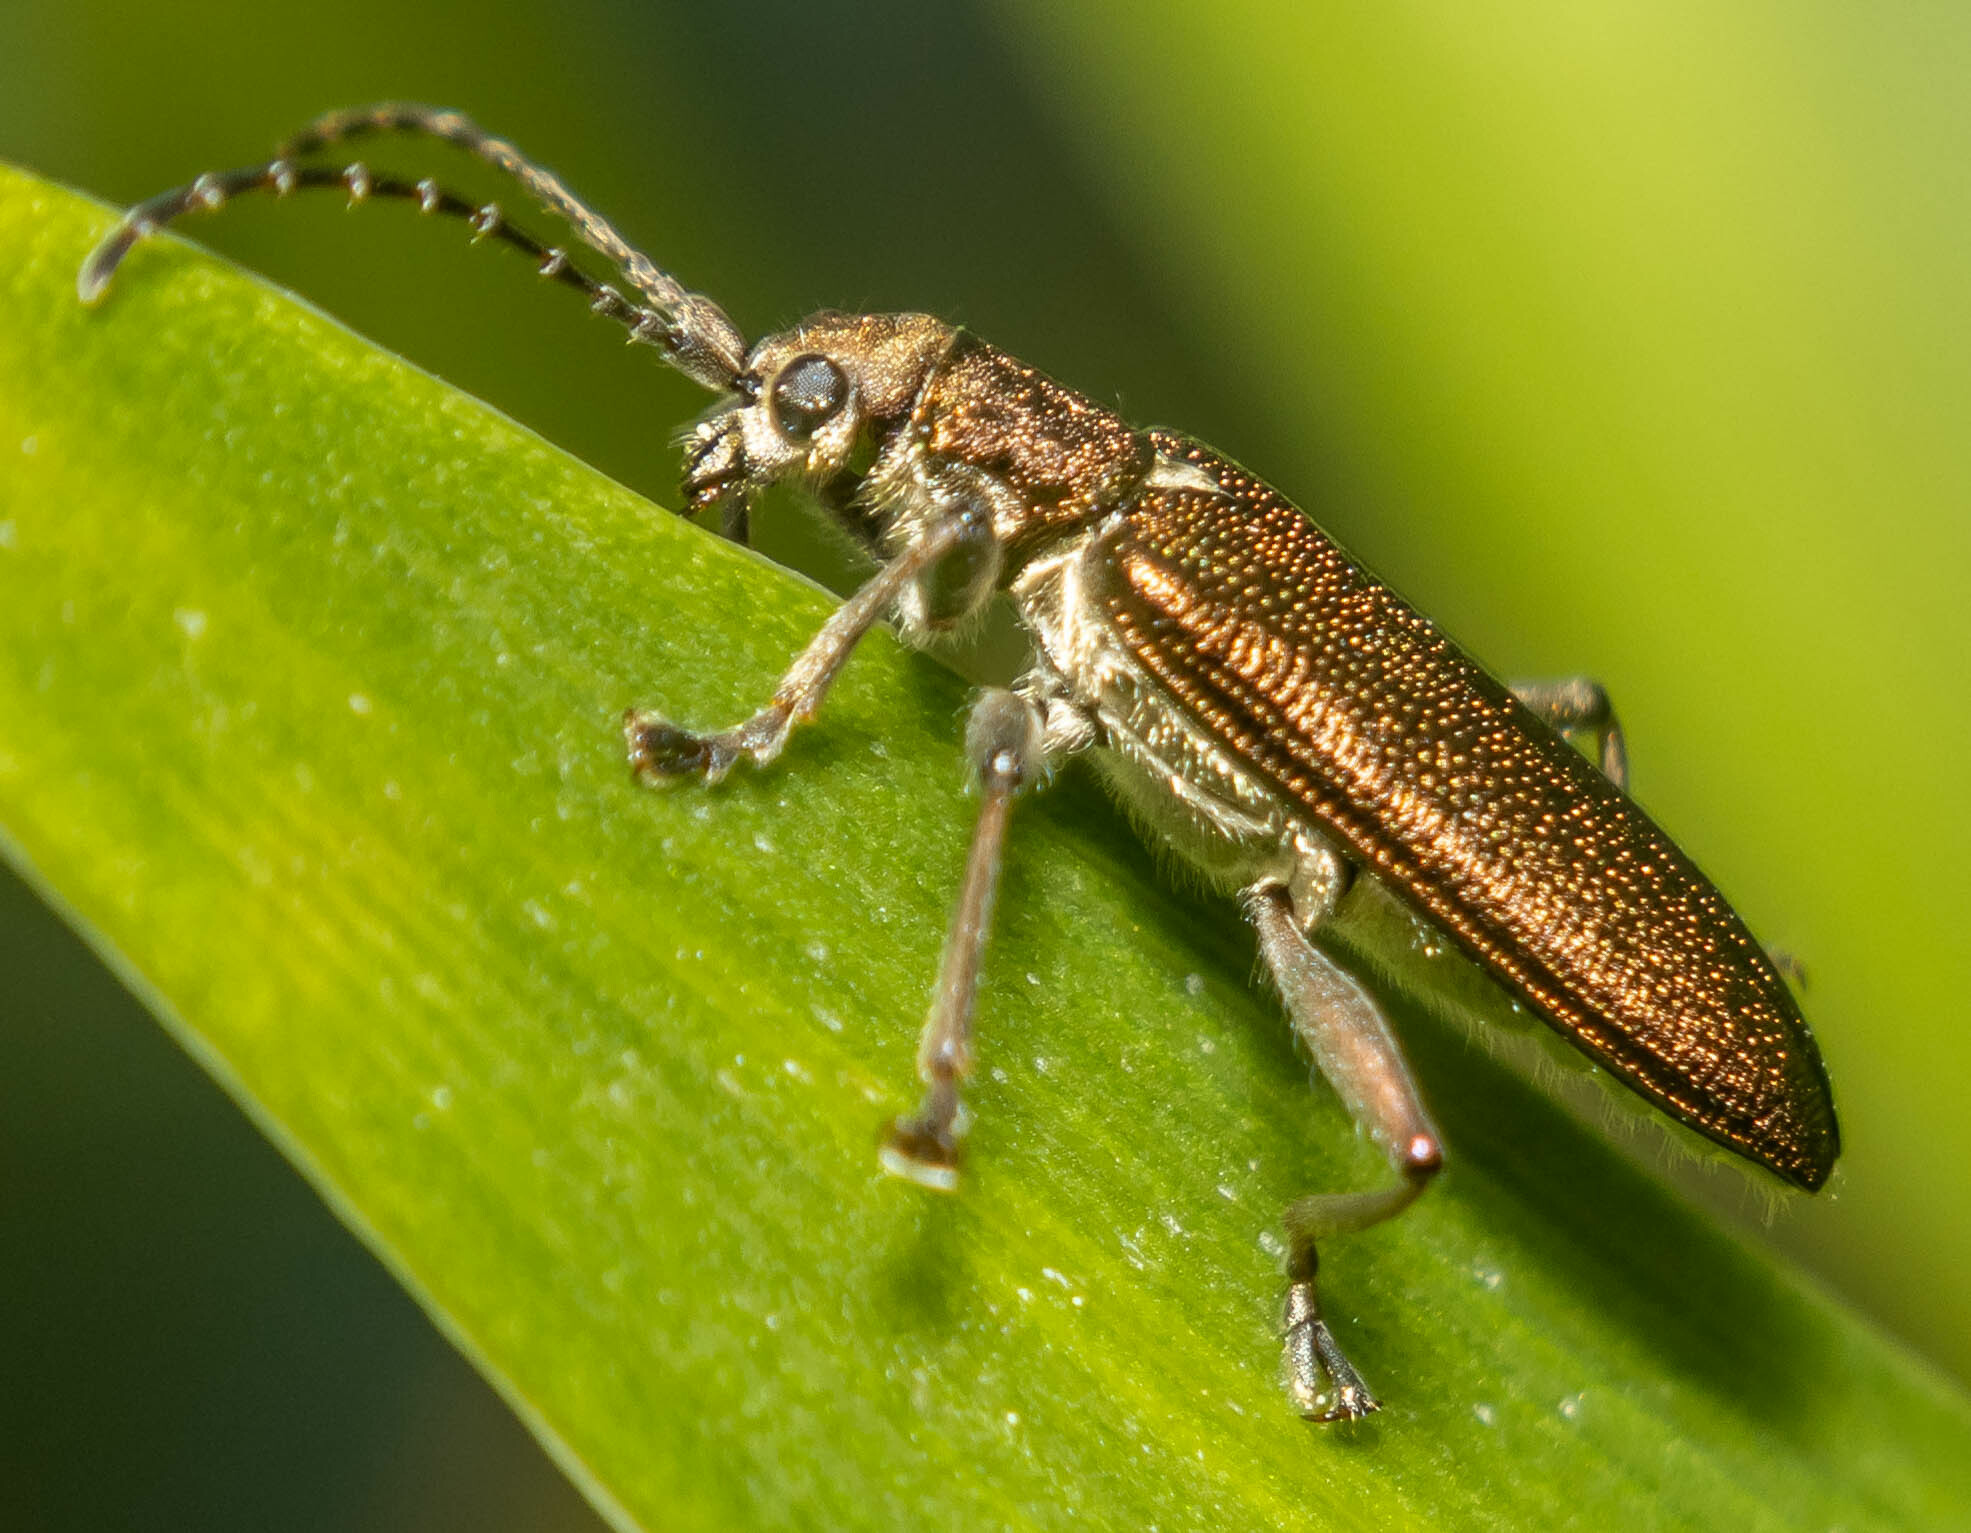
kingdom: Animalia
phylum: Arthropoda
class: Insecta
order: Coleoptera
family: Chrysomelidae
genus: Donacia
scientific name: Donacia simplex
